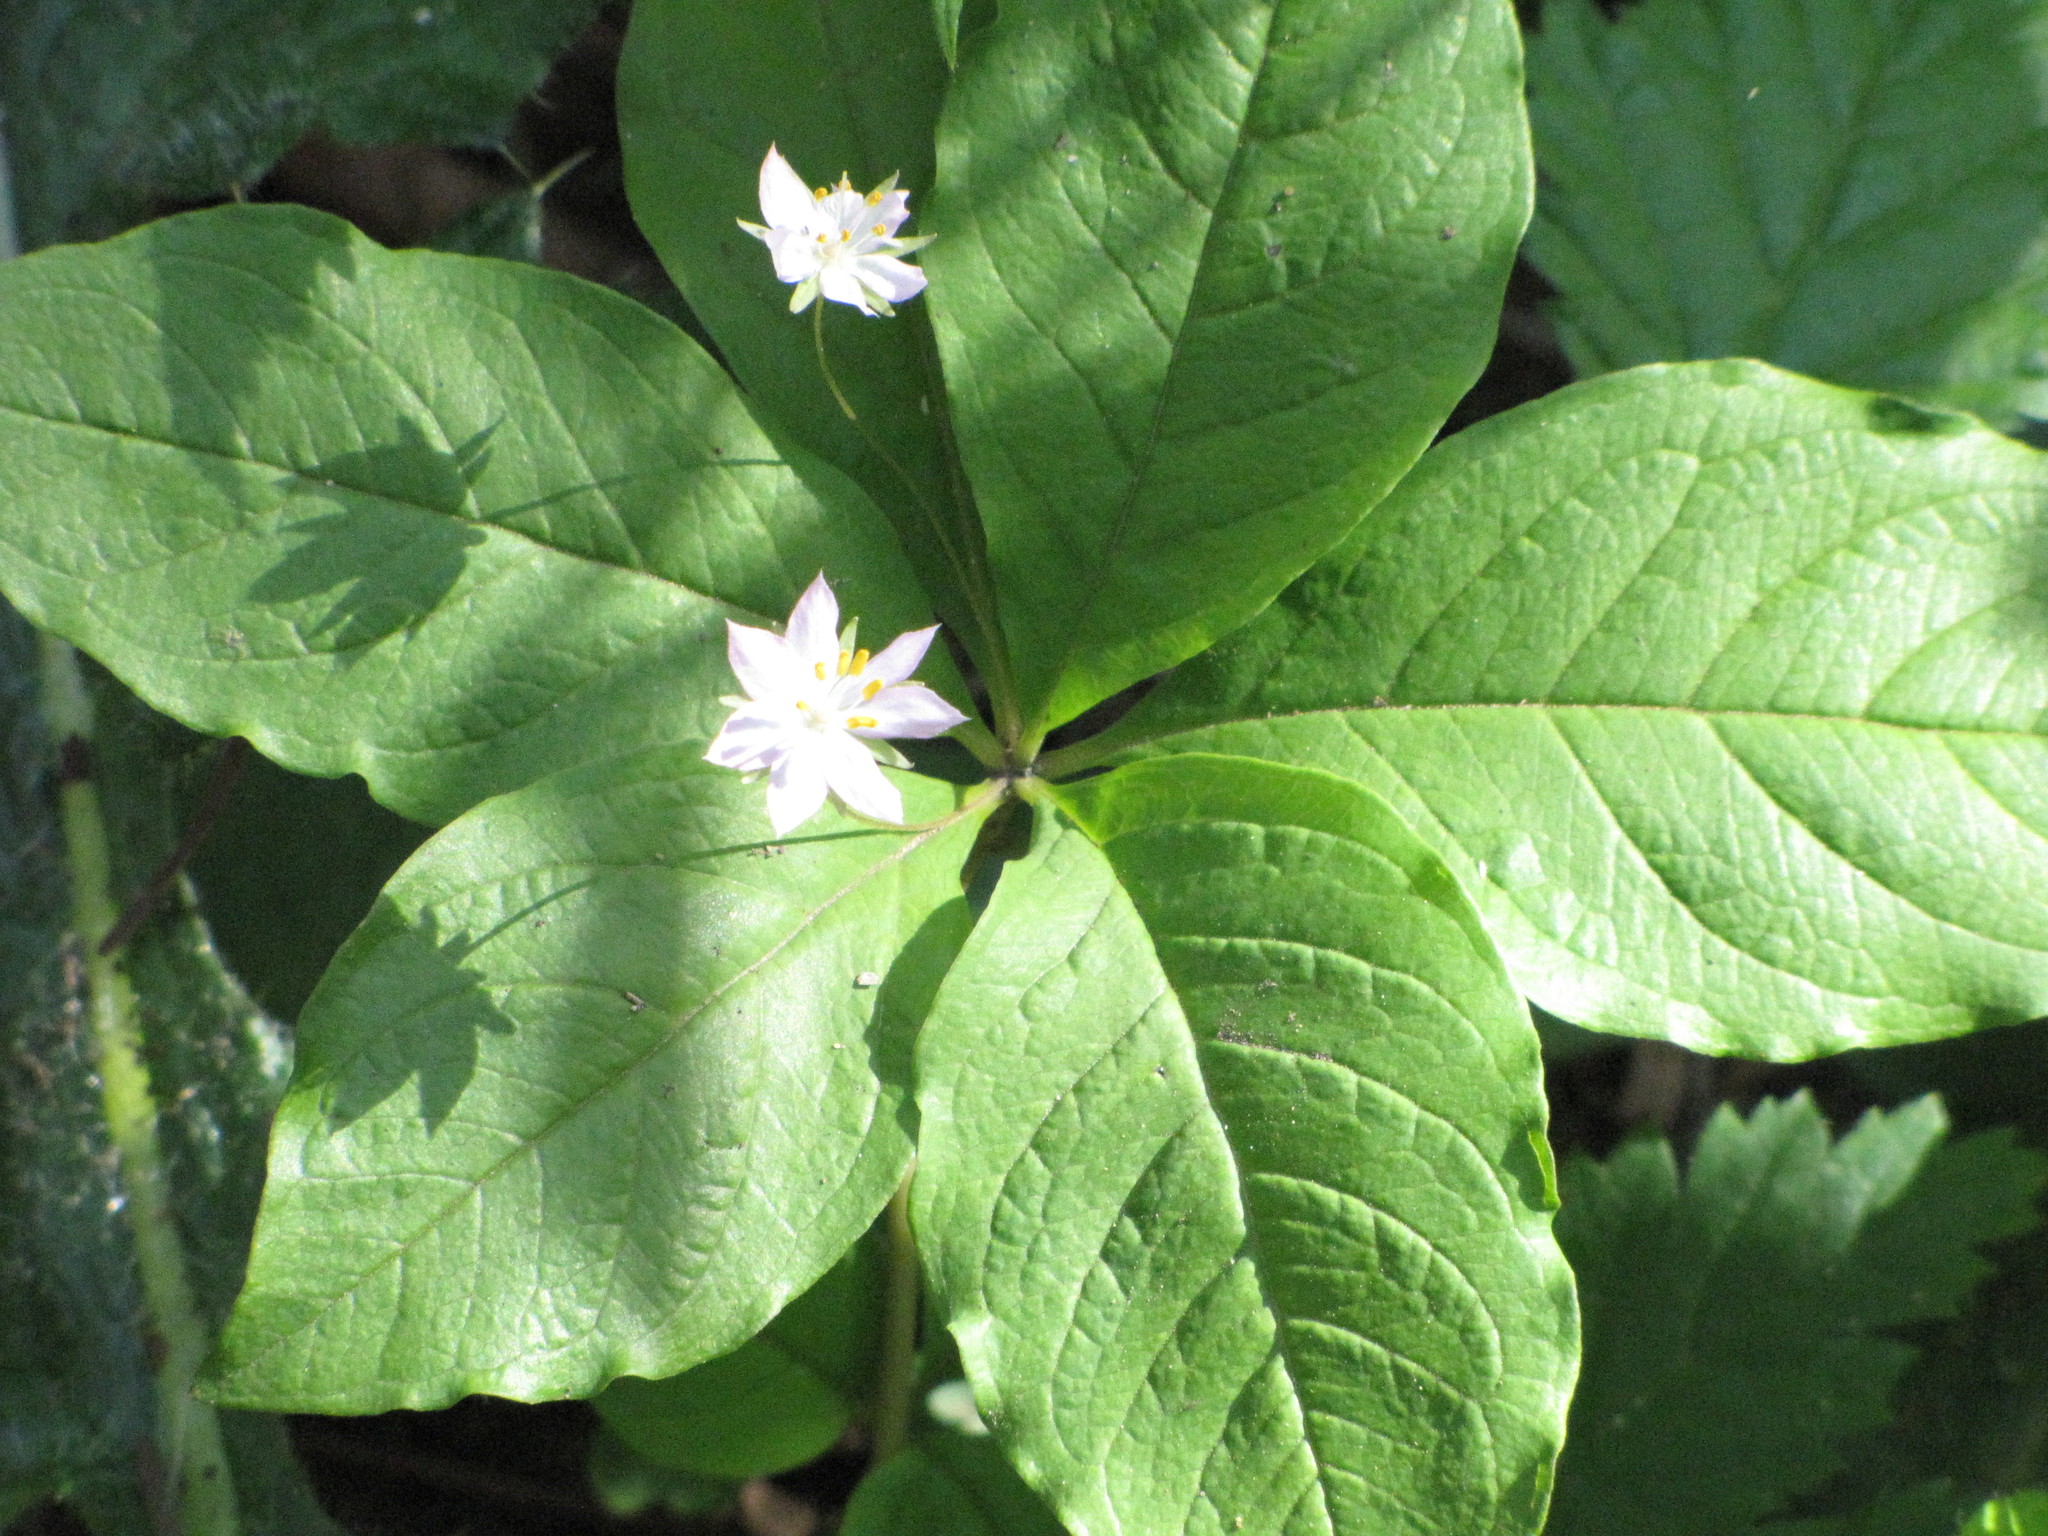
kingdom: Plantae
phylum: Tracheophyta
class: Magnoliopsida
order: Ericales
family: Primulaceae
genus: Lysimachia
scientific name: Lysimachia latifolia
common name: Pacific starflower
